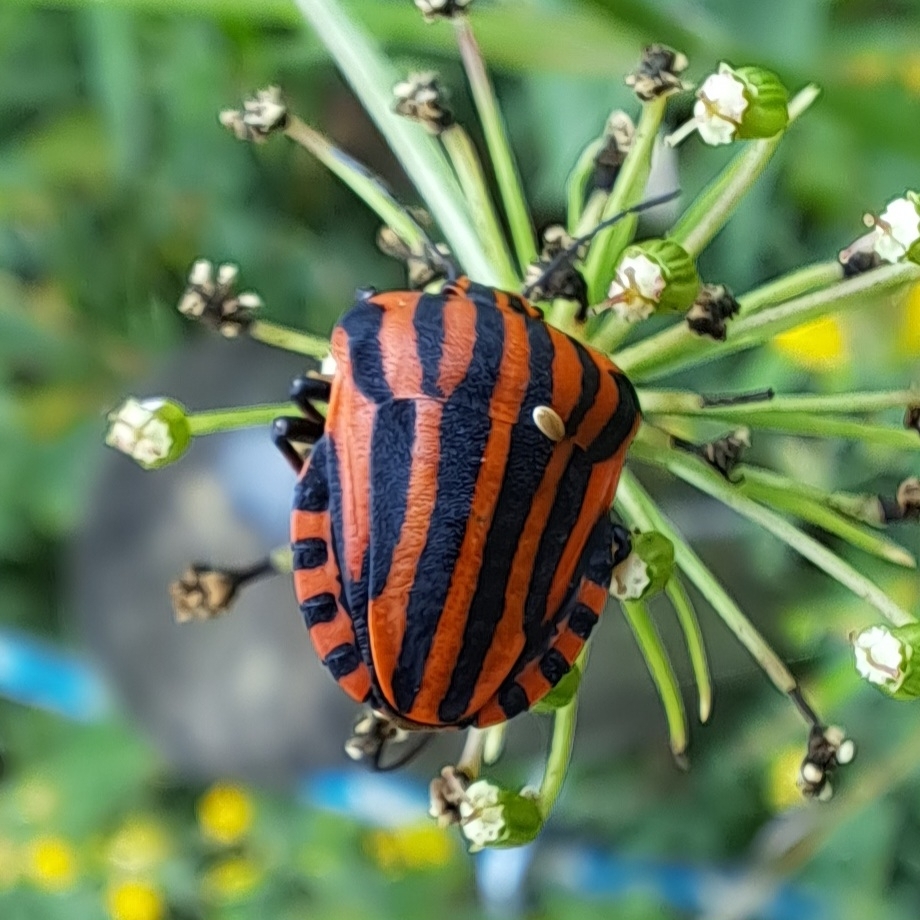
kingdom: Animalia
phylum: Arthropoda
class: Insecta
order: Hemiptera
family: Pentatomidae
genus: Graphosoma
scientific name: Graphosoma italicum
